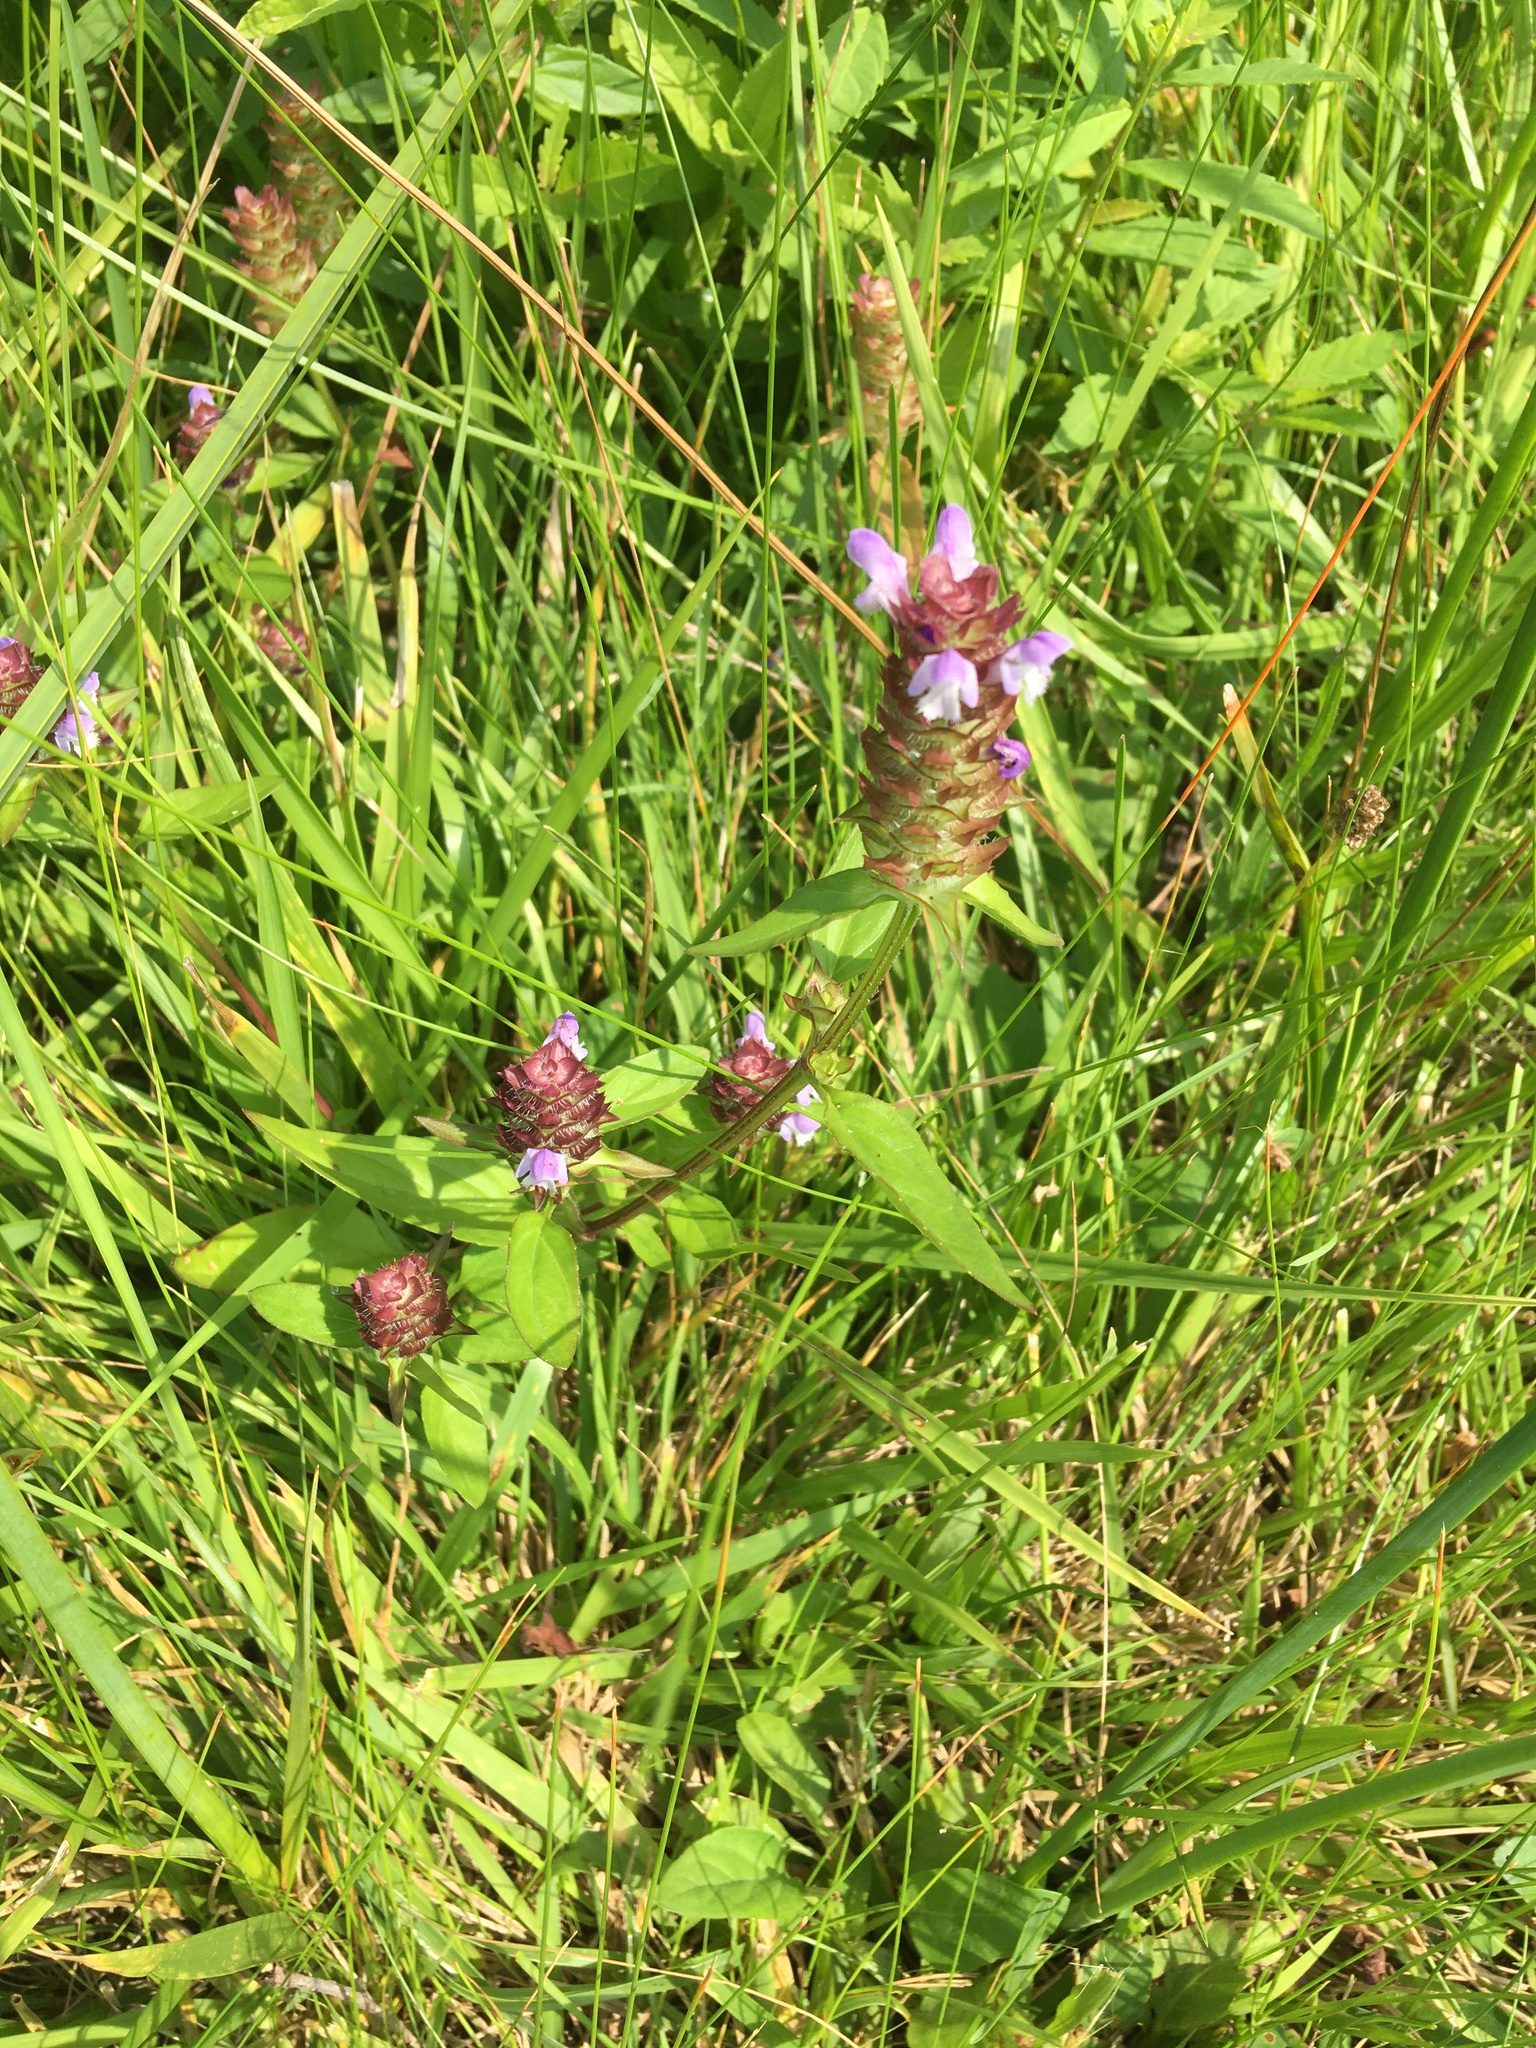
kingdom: Plantae
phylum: Tracheophyta
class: Magnoliopsida
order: Lamiales
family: Lamiaceae
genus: Prunella
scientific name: Prunella vulgaris
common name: Heal-all
